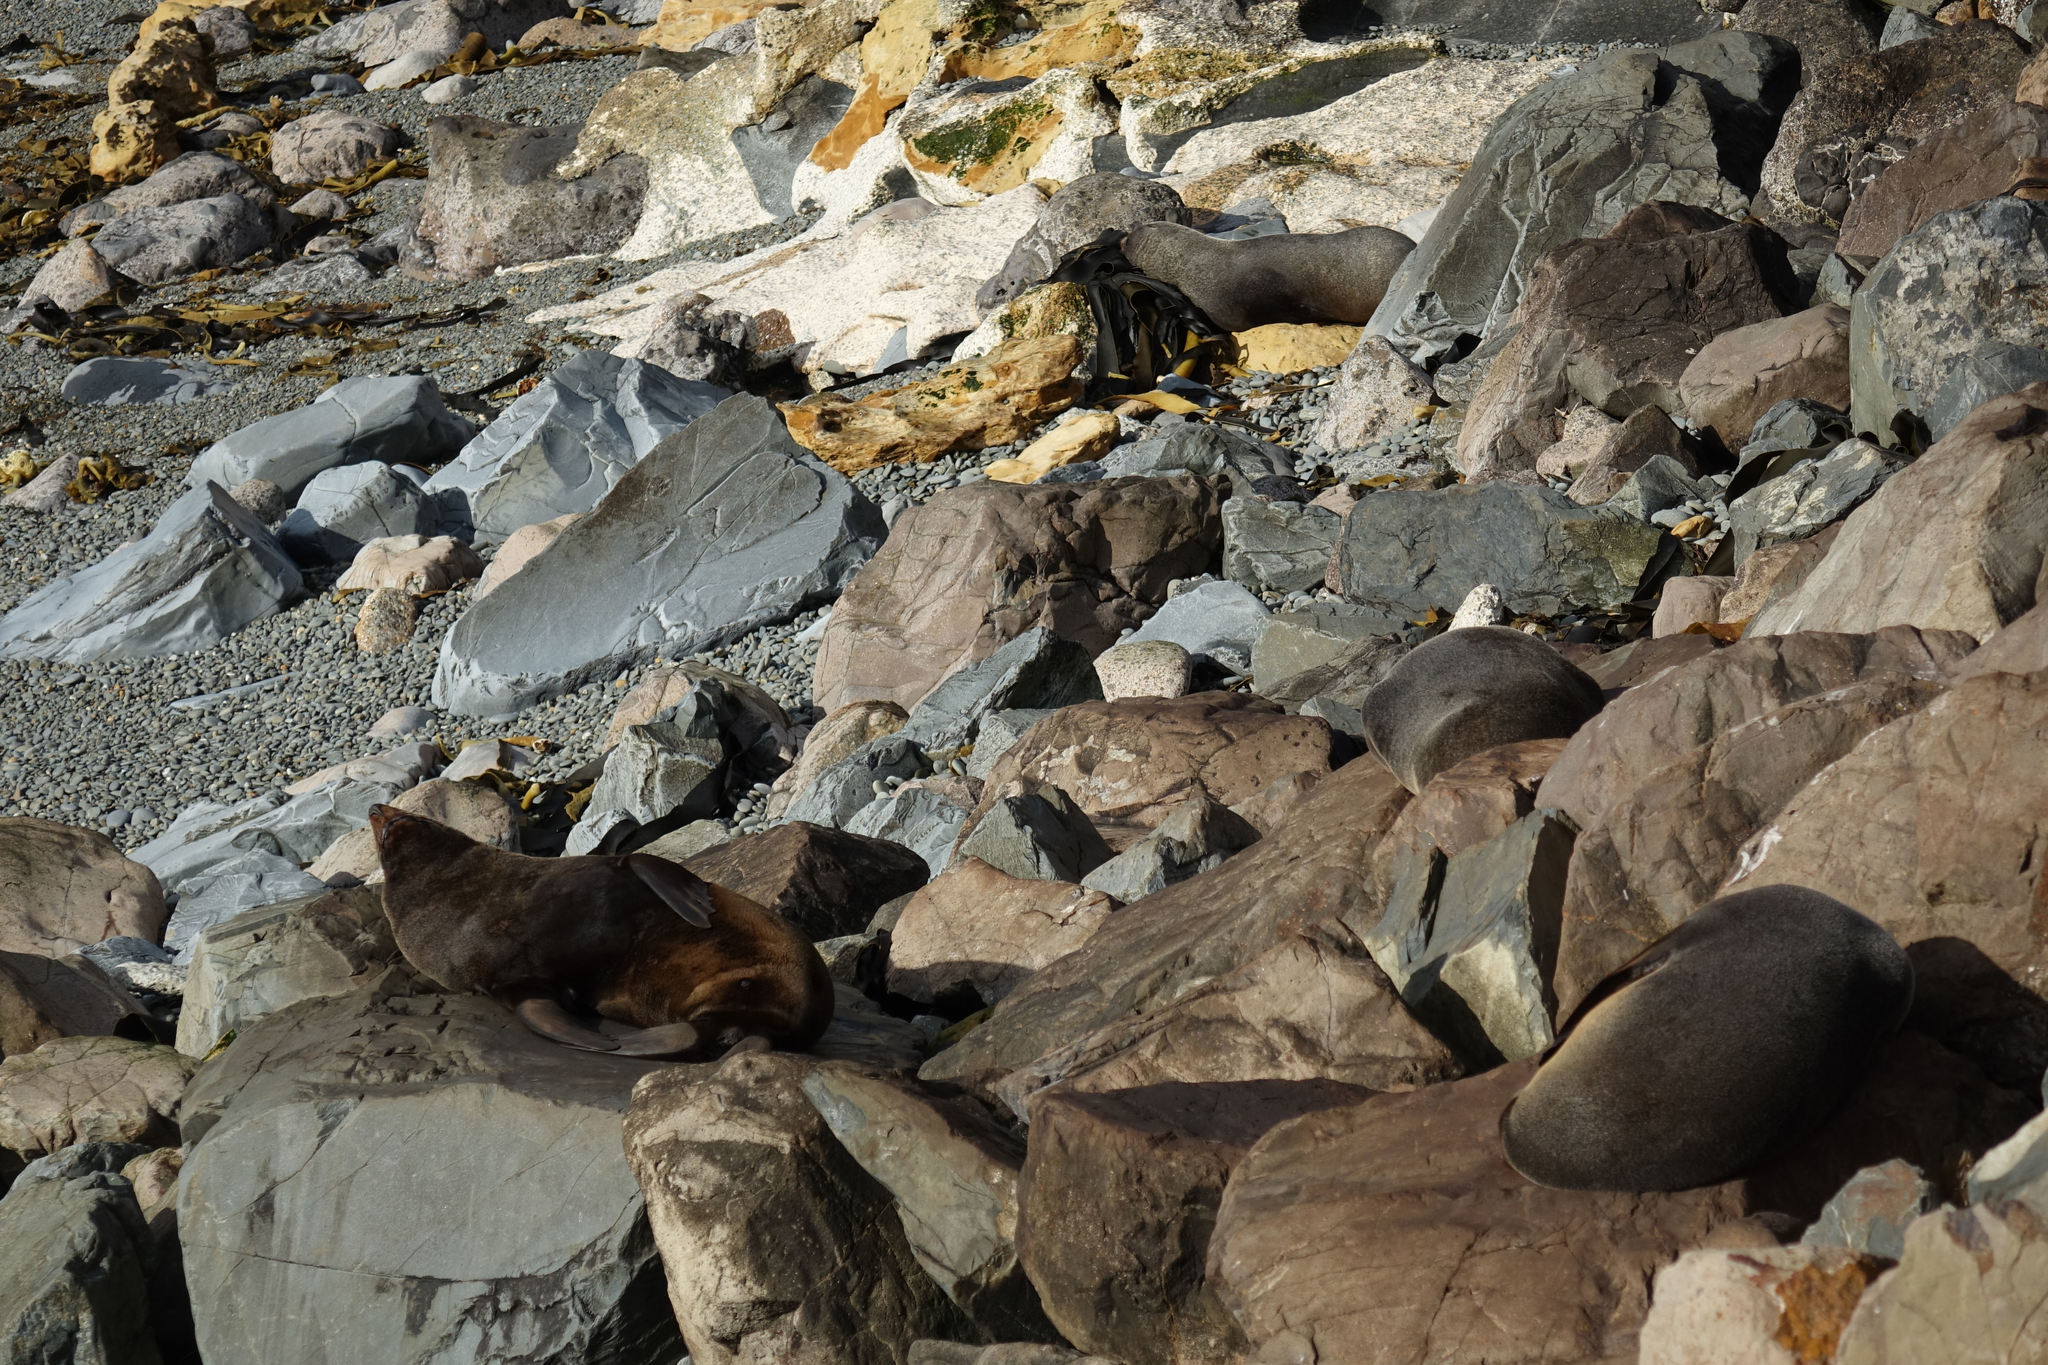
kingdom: Animalia
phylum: Chordata
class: Mammalia
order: Carnivora
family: Otariidae
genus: Arctocephalus
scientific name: Arctocephalus forsteri
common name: New zealand fur seal
